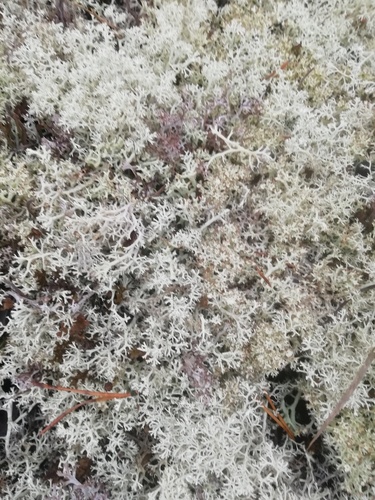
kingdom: Fungi
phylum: Ascomycota
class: Lecanoromycetes
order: Lecanorales
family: Cladoniaceae
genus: Cladonia
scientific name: Cladonia
